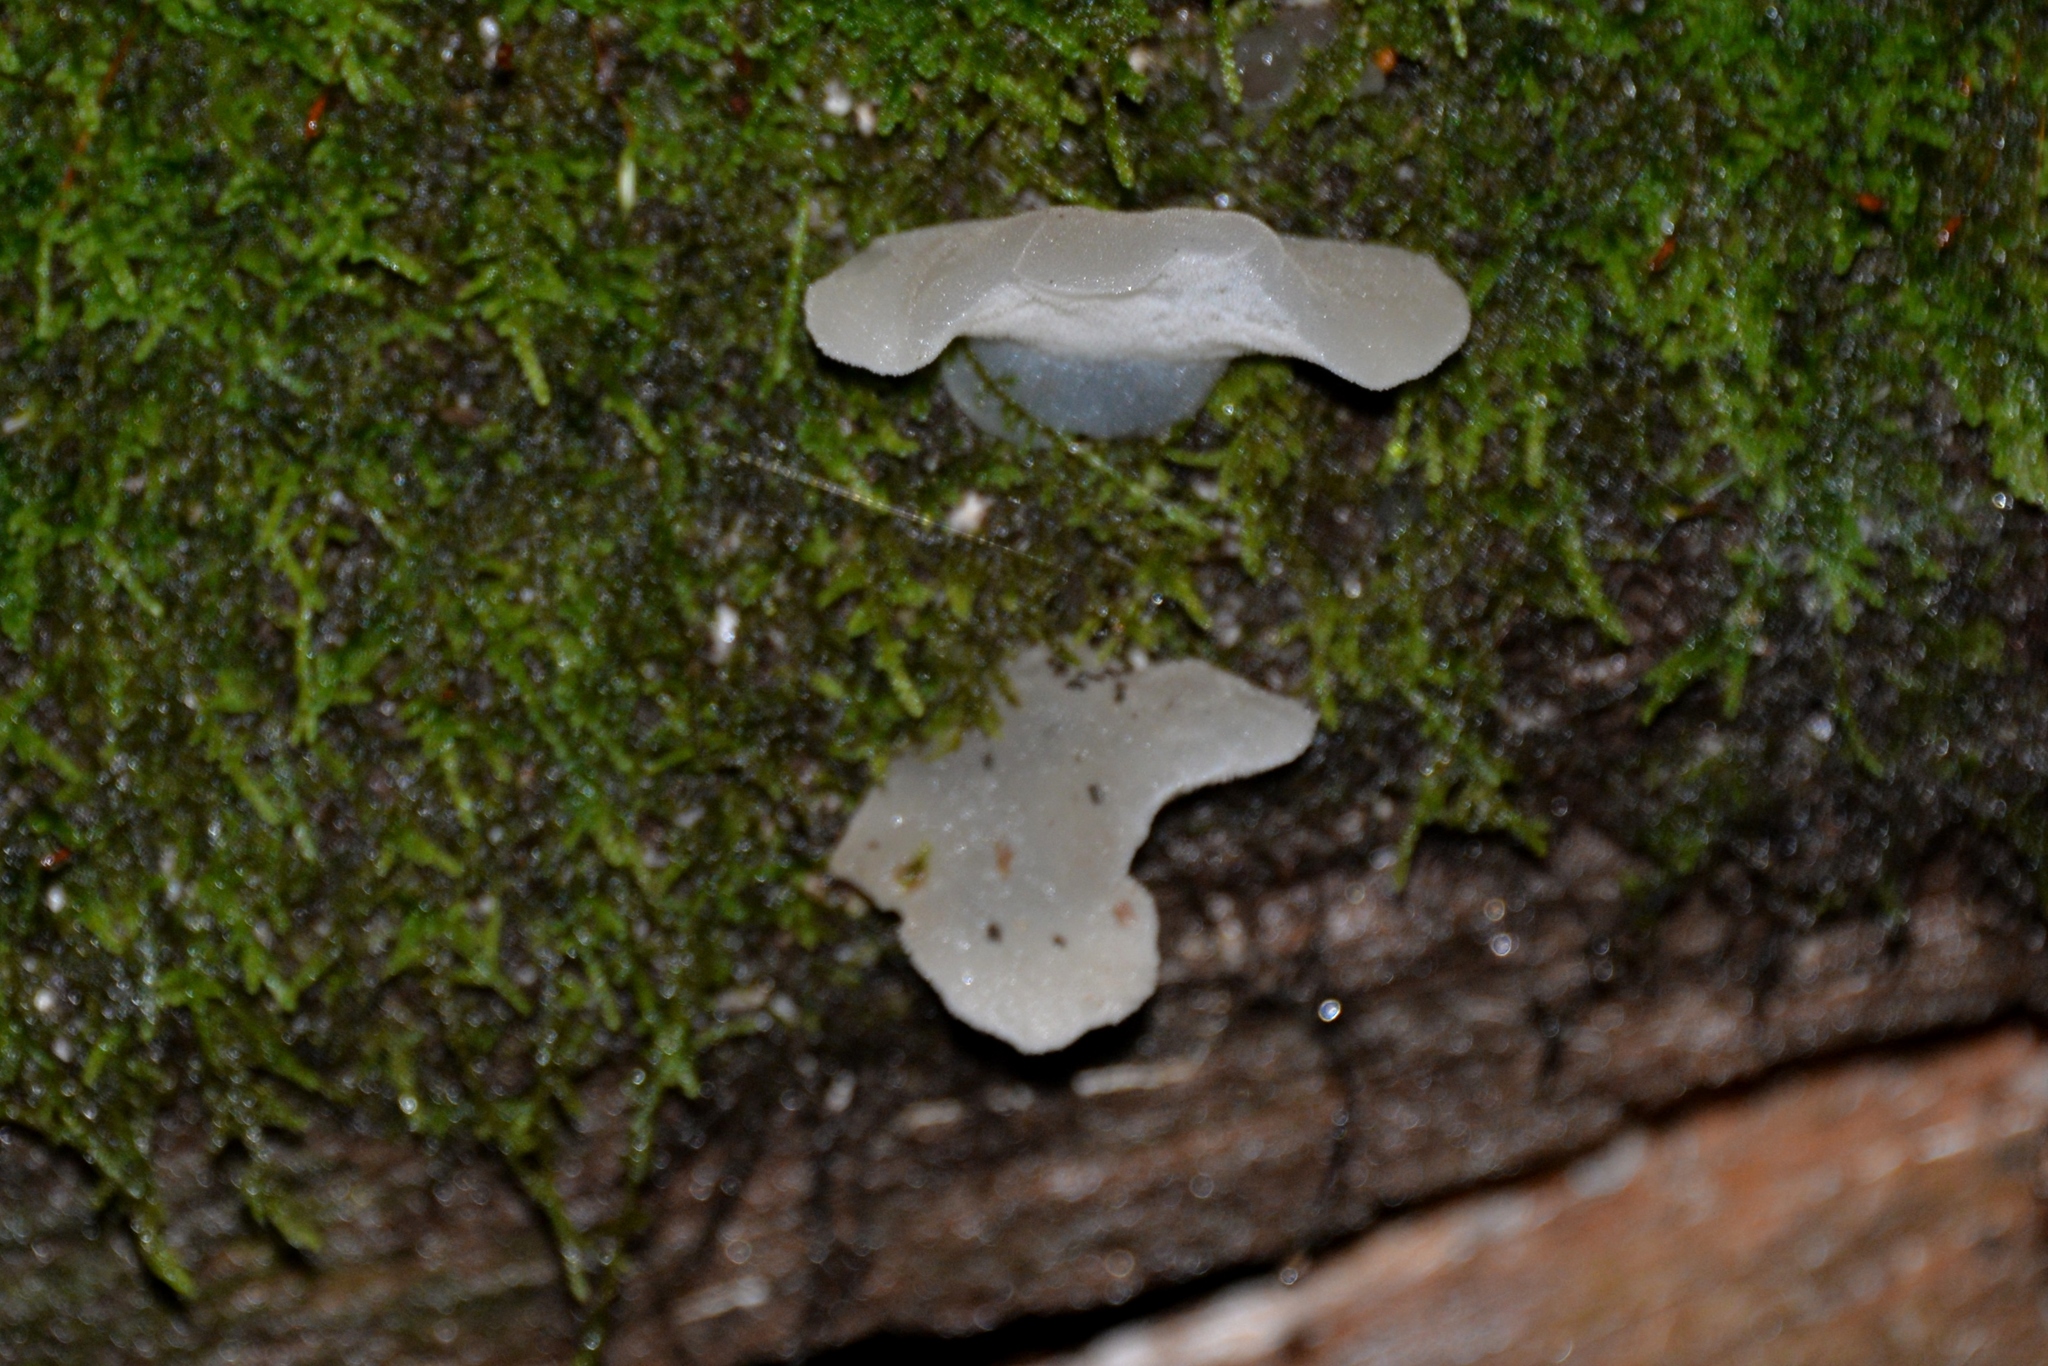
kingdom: Fungi
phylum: Basidiomycota
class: Agaricomycetes
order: Auriculariales
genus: Pseudohydnum
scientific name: Pseudohydnum gelatinosum
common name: Jelly tongue
